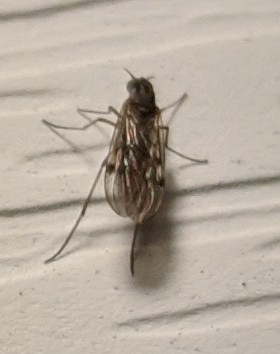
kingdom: Animalia
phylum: Arthropoda
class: Insecta
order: Diptera
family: Anisopodidae
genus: Sylvicola
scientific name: Sylvicola punctatus
